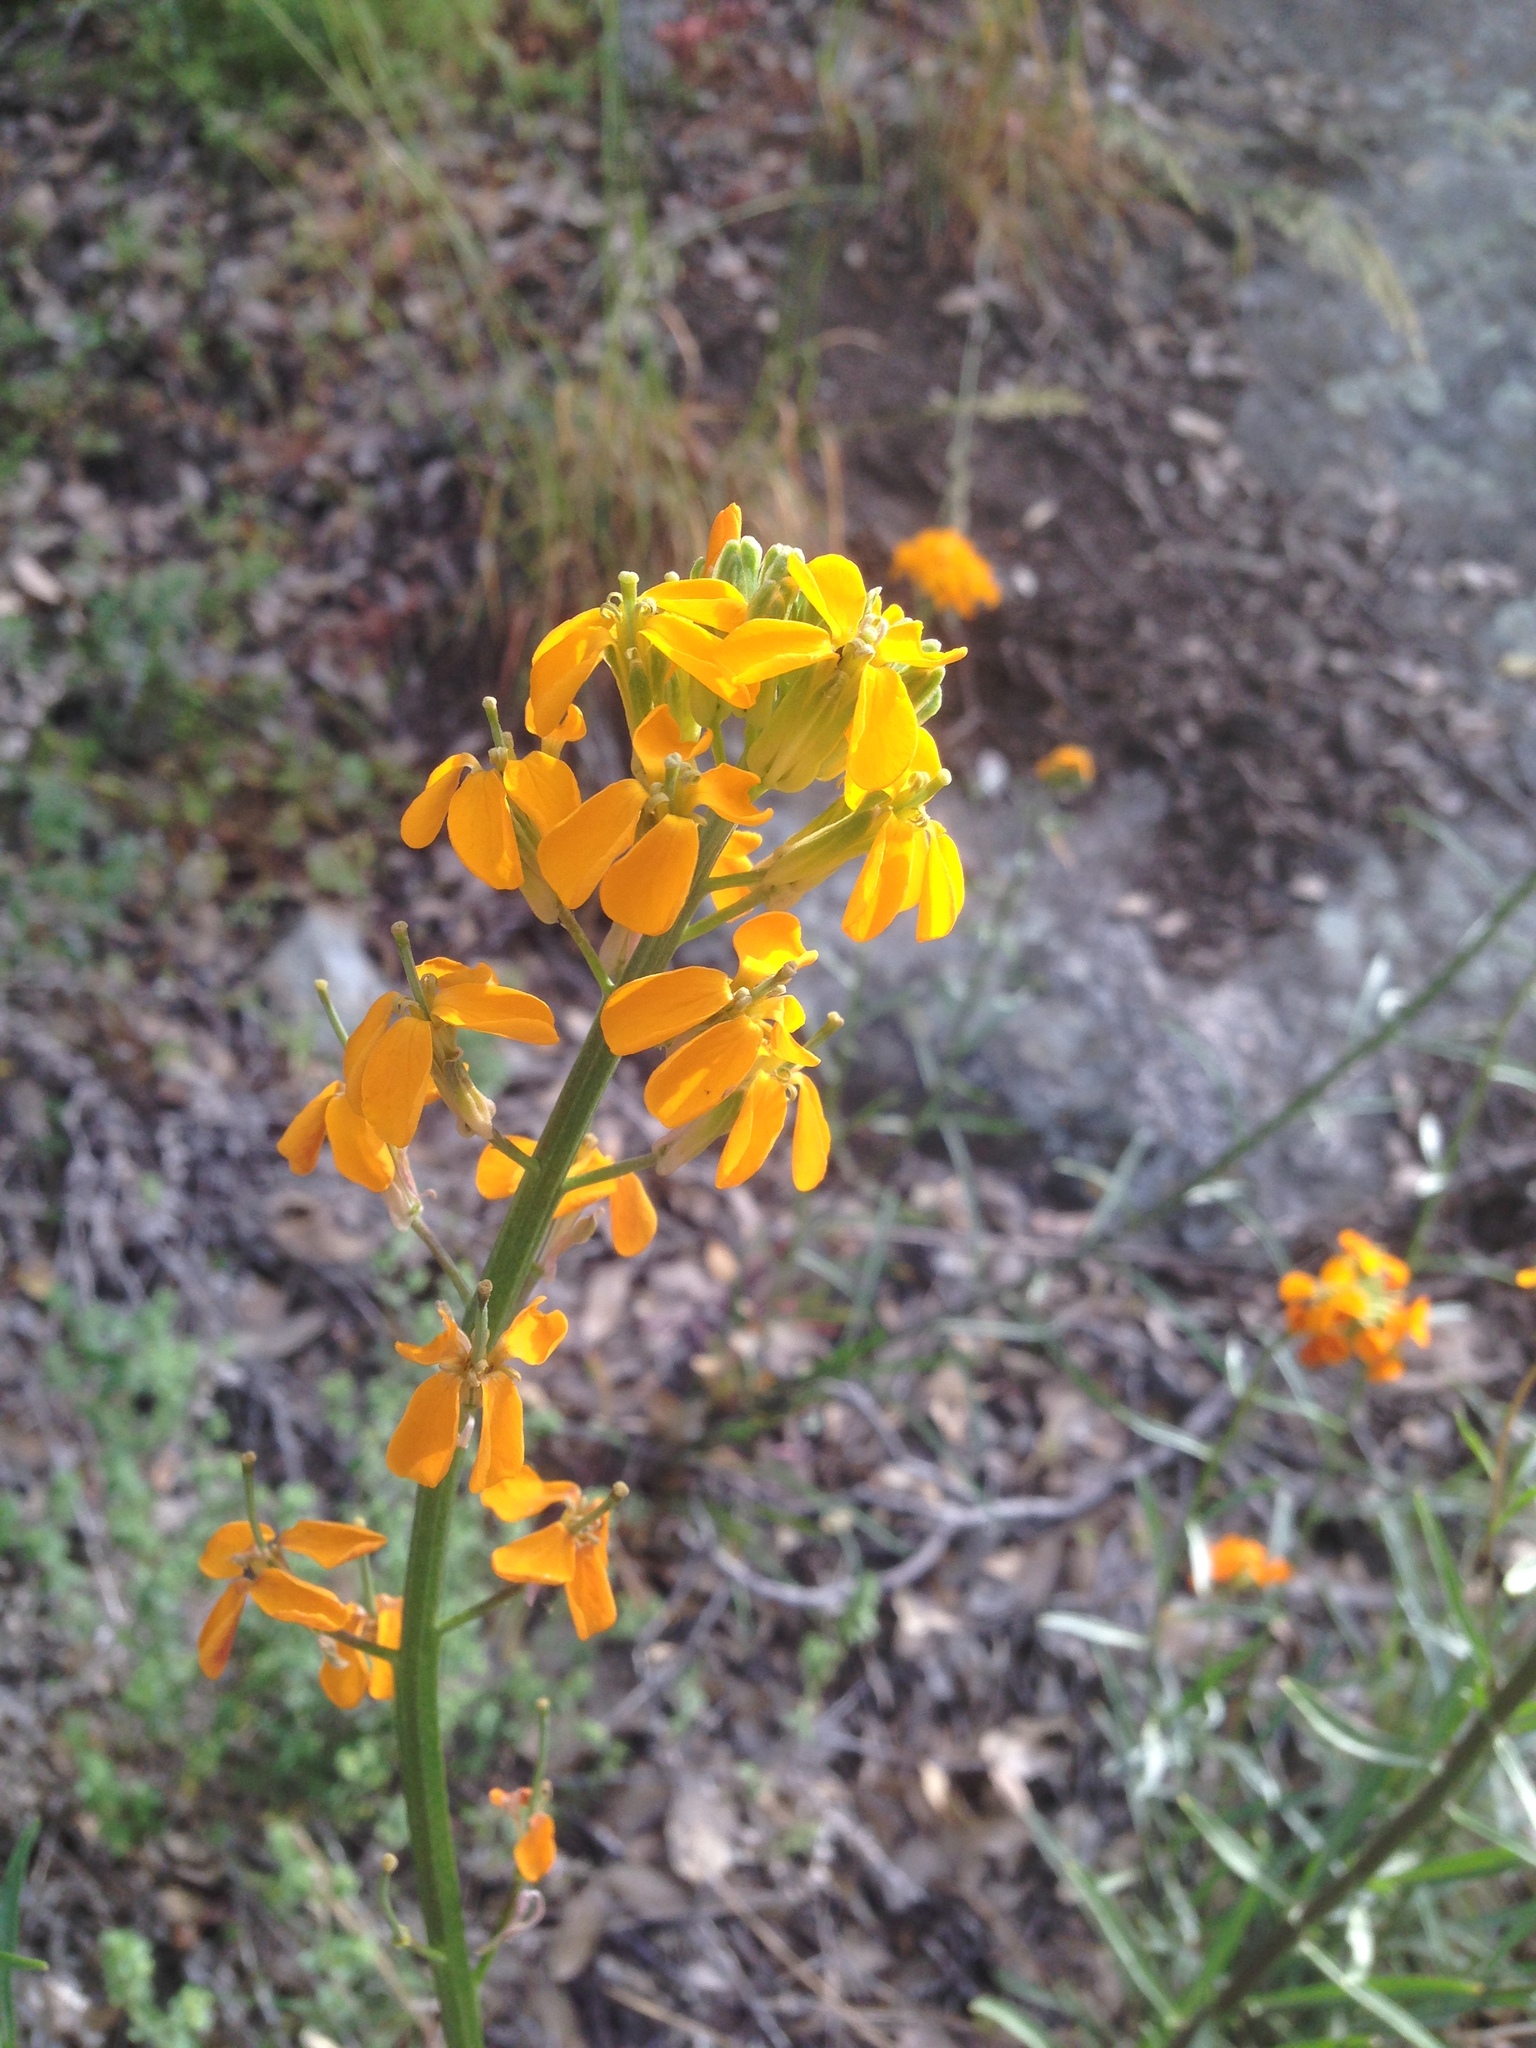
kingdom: Plantae
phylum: Tracheophyta
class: Magnoliopsida
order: Brassicales
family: Brassicaceae
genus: Erysimum
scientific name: Erysimum capitatum
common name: Western wallflower
